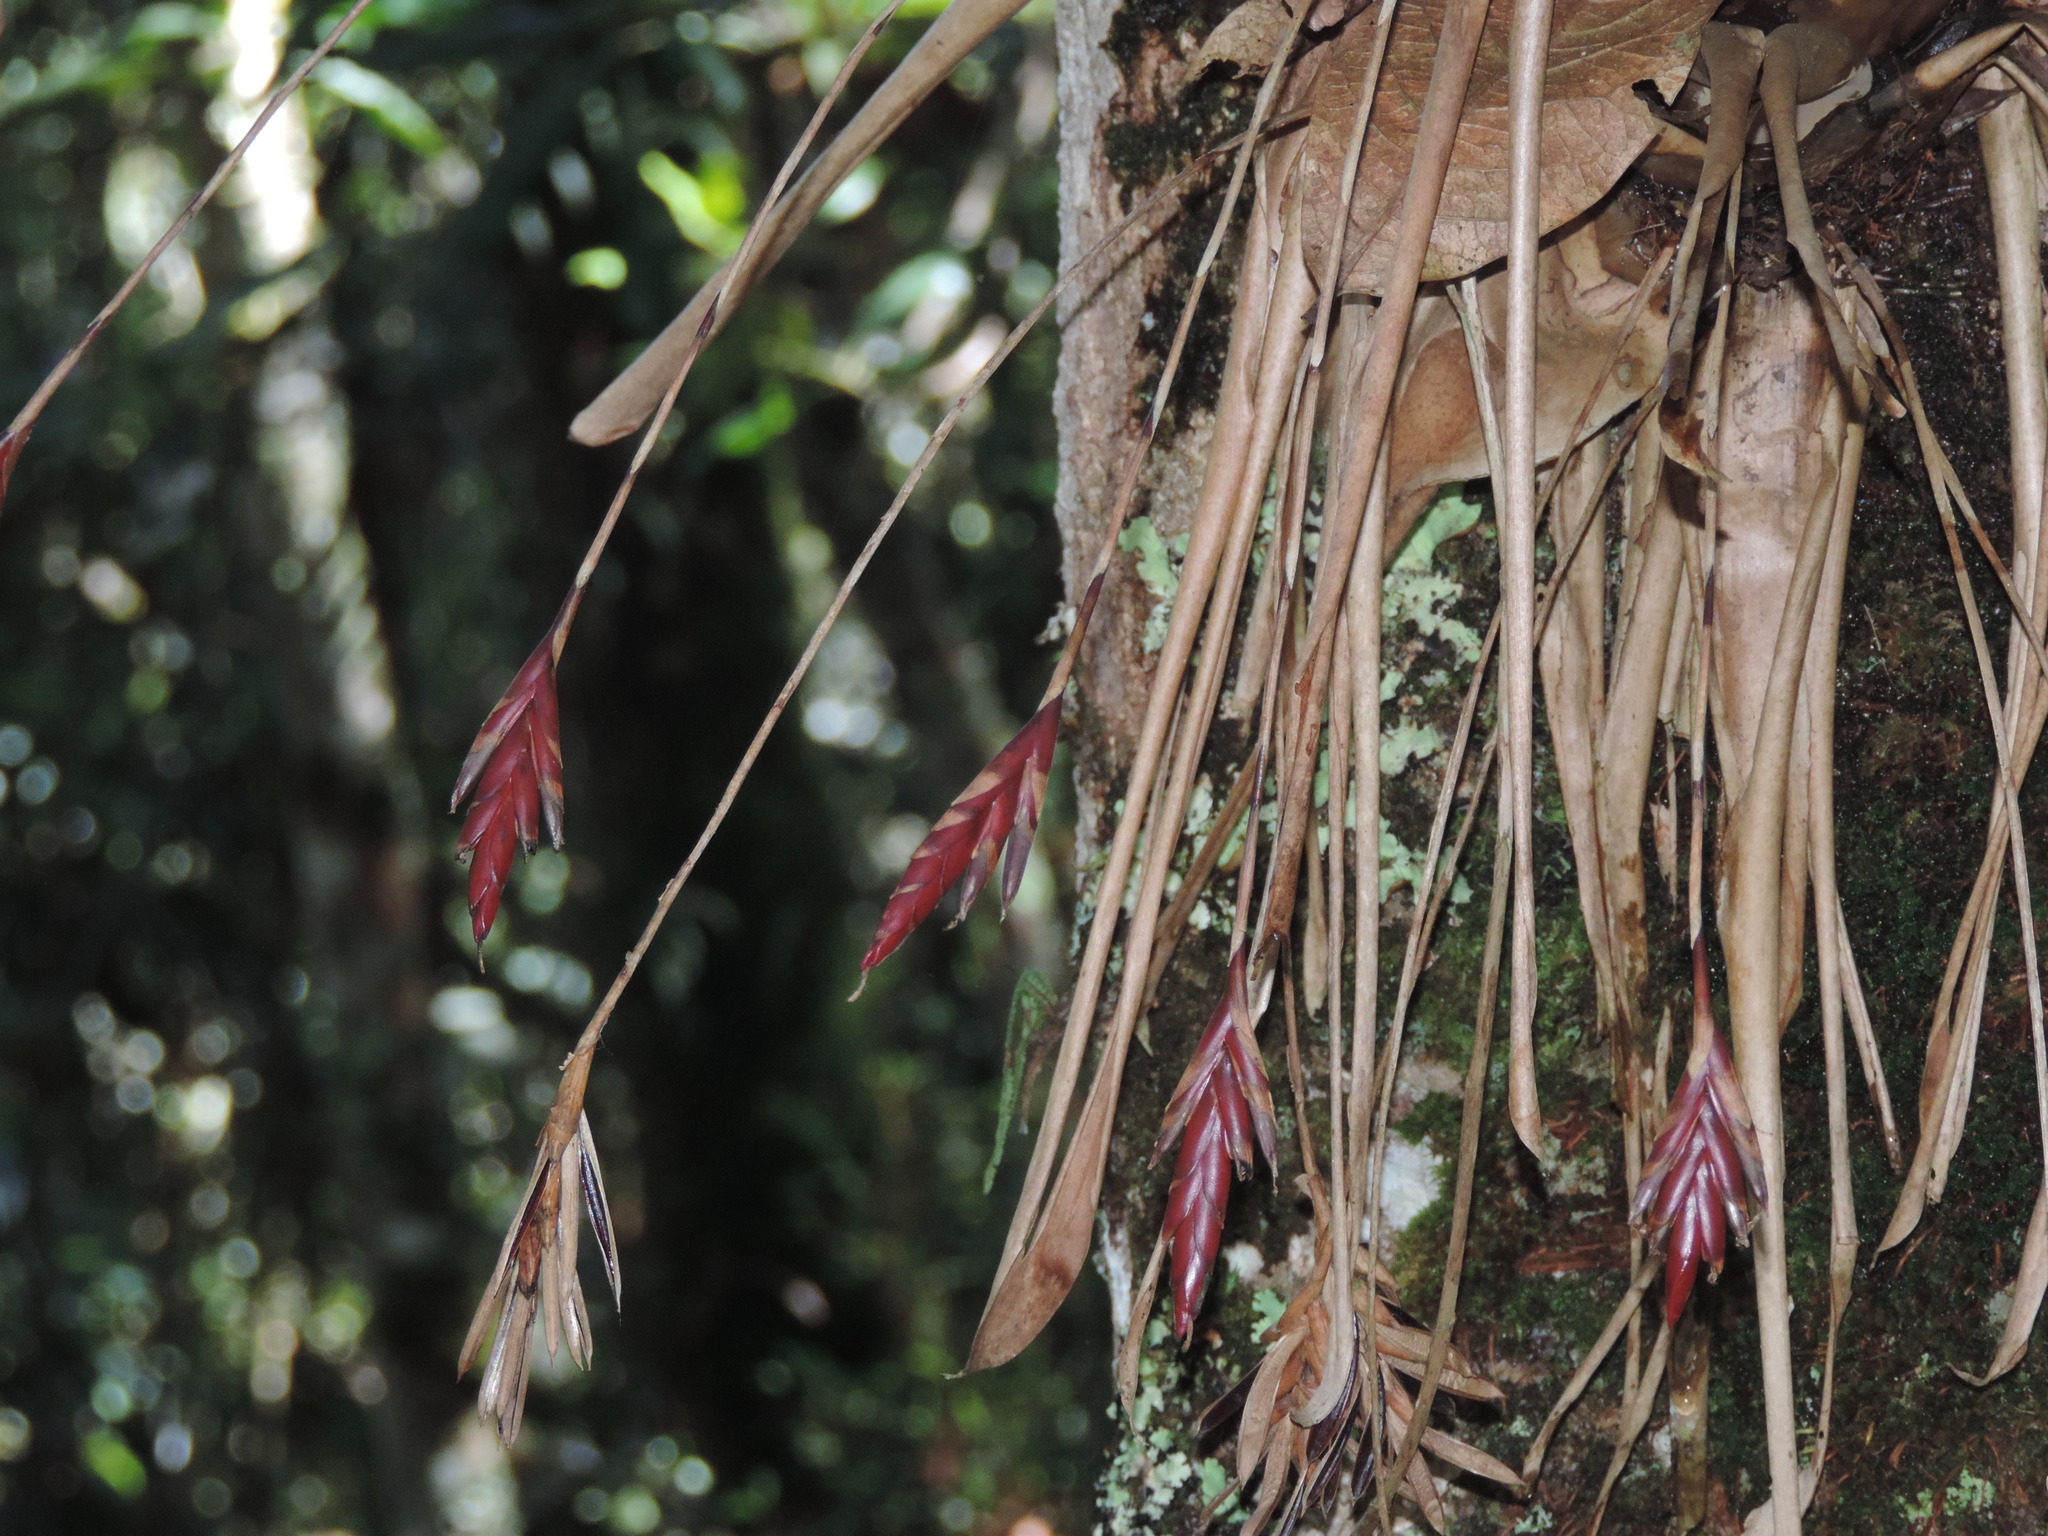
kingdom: Plantae
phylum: Tracheophyta
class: Liliopsida
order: Poales
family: Bromeliaceae
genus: Tillandsia
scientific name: Tillandsia complanata
